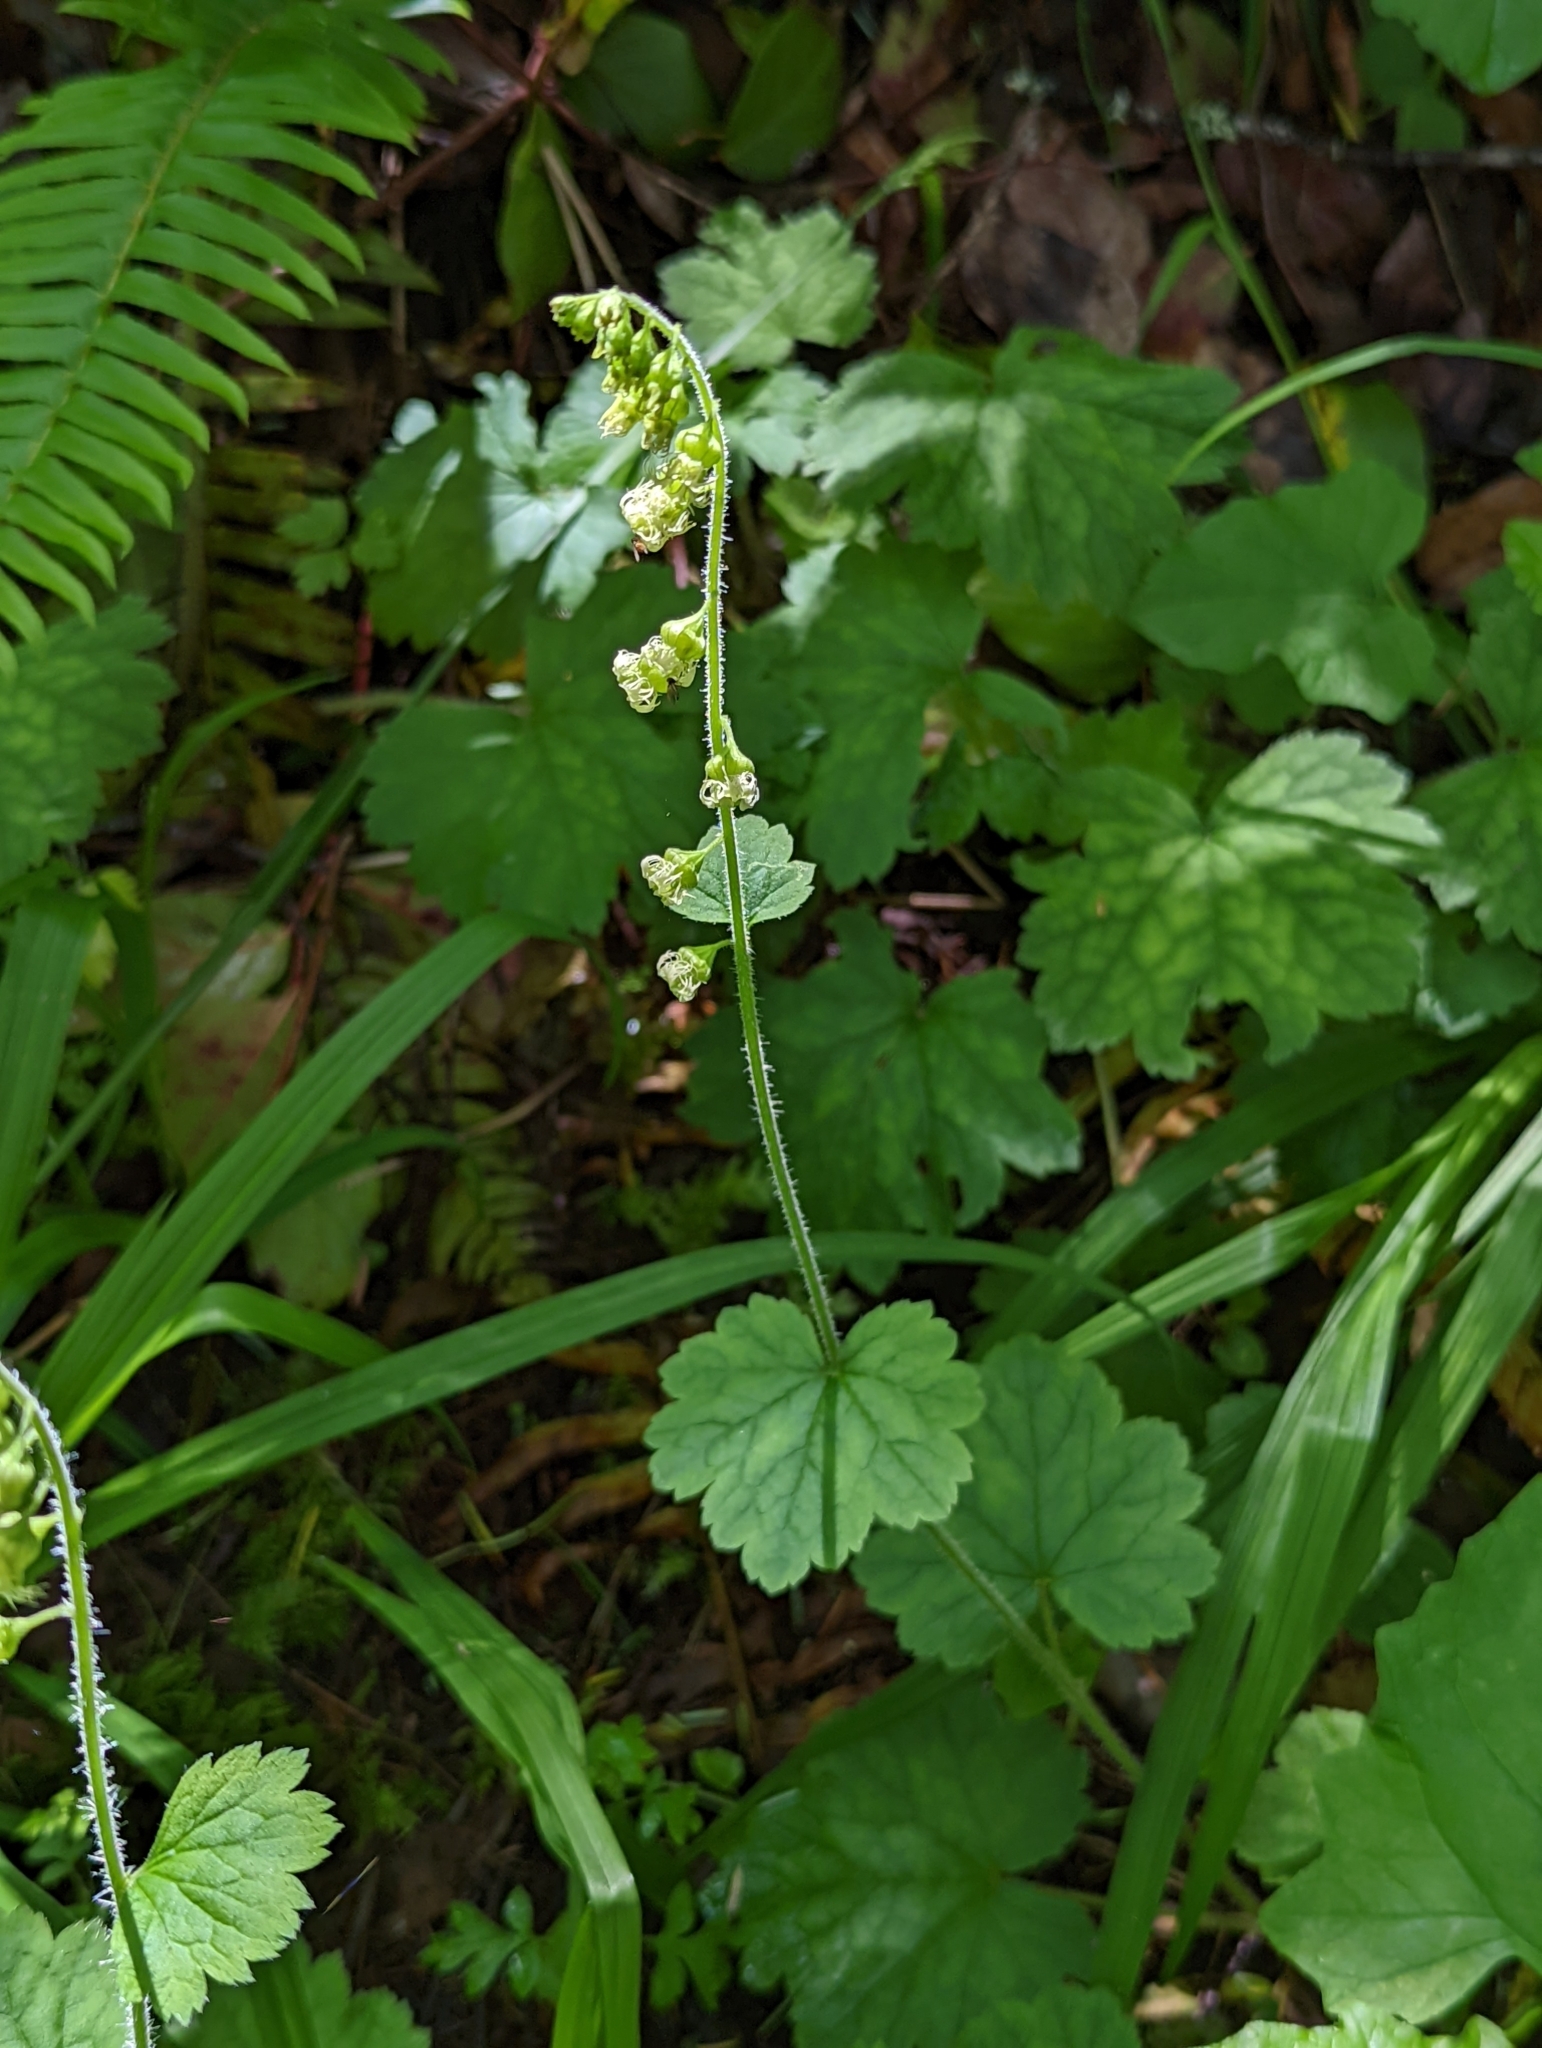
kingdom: Plantae
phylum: Tracheophyta
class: Magnoliopsida
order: Saxifragales
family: Saxifragaceae
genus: Tellima
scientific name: Tellima grandiflora
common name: Fringecups
